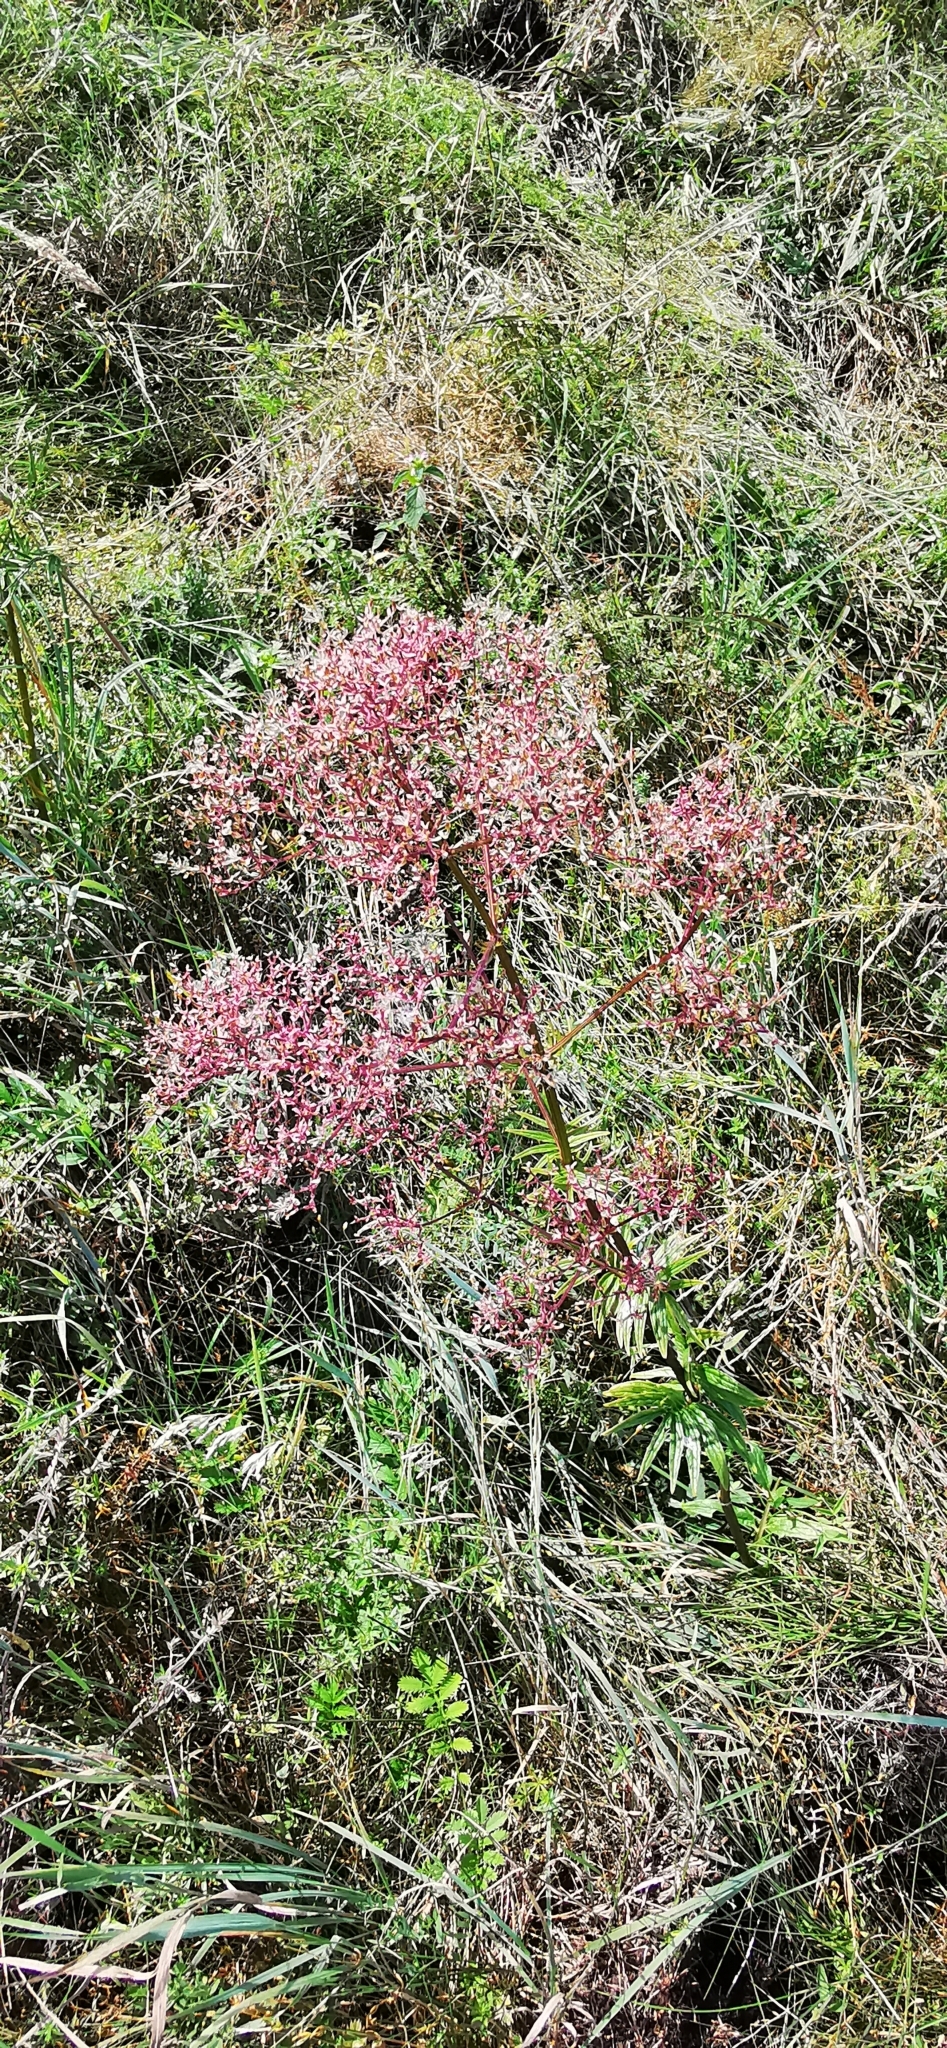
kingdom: Plantae
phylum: Tracheophyta
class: Magnoliopsida
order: Dipsacales
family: Caprifoliaceae
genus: Valeriana
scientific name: Valeriana officinalis
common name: Common valerian
